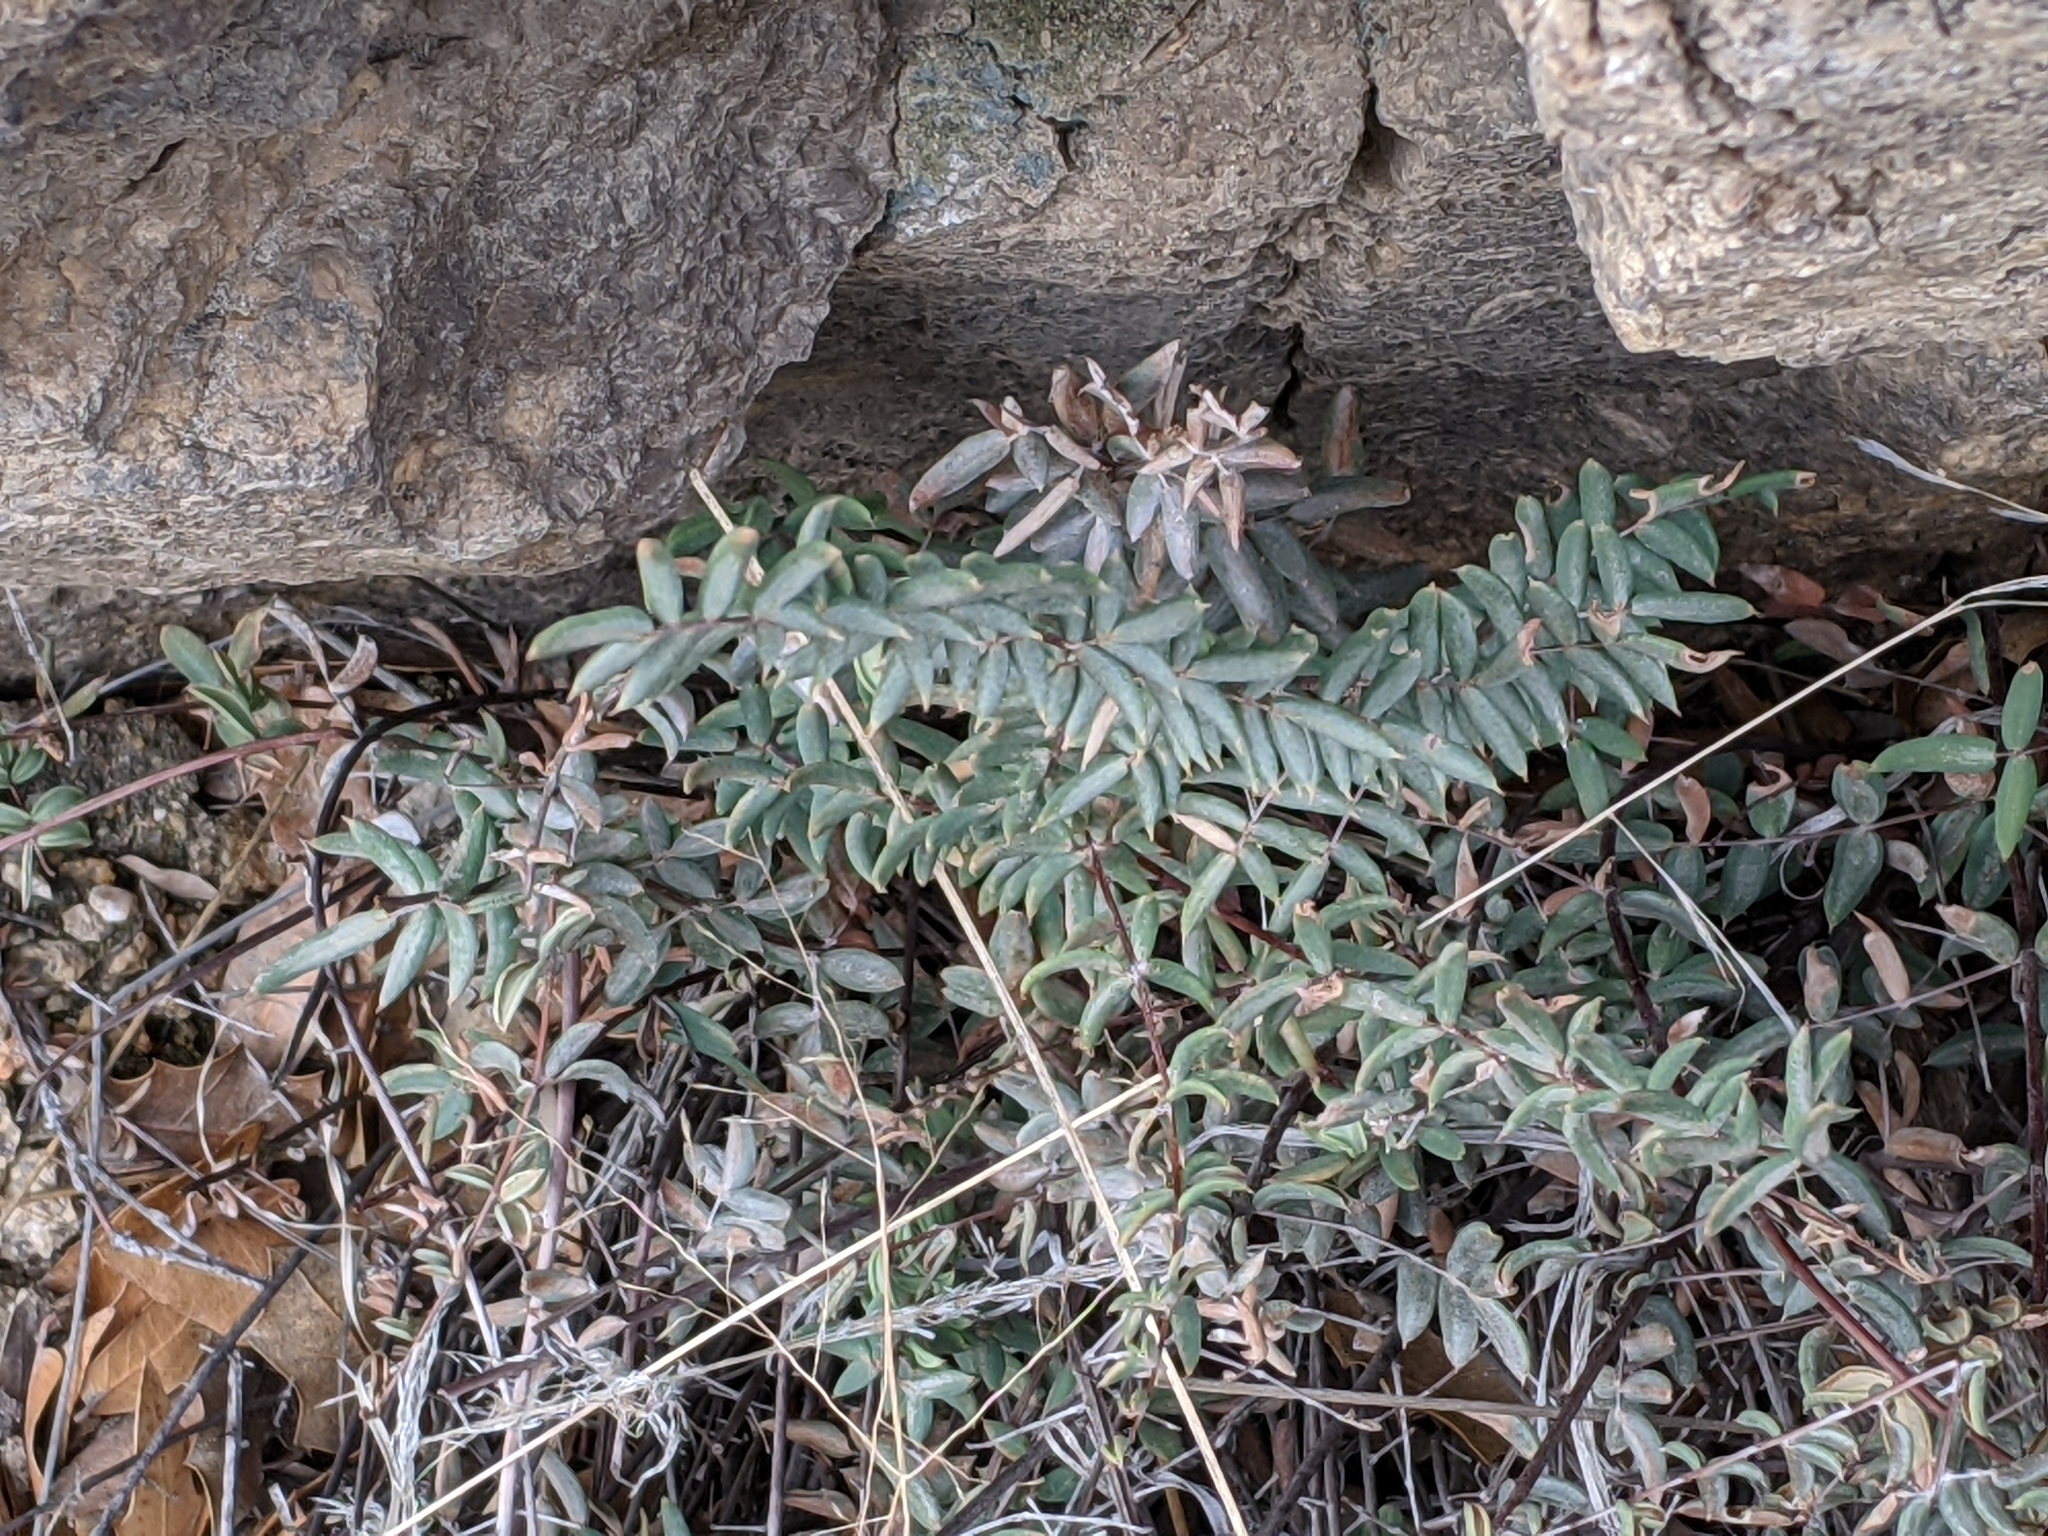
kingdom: Plantae
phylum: Tracheophyta
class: Polypodiopsida
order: Polypodiales
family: Pteridaceae
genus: Pellaea
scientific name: Pellaea truncata
